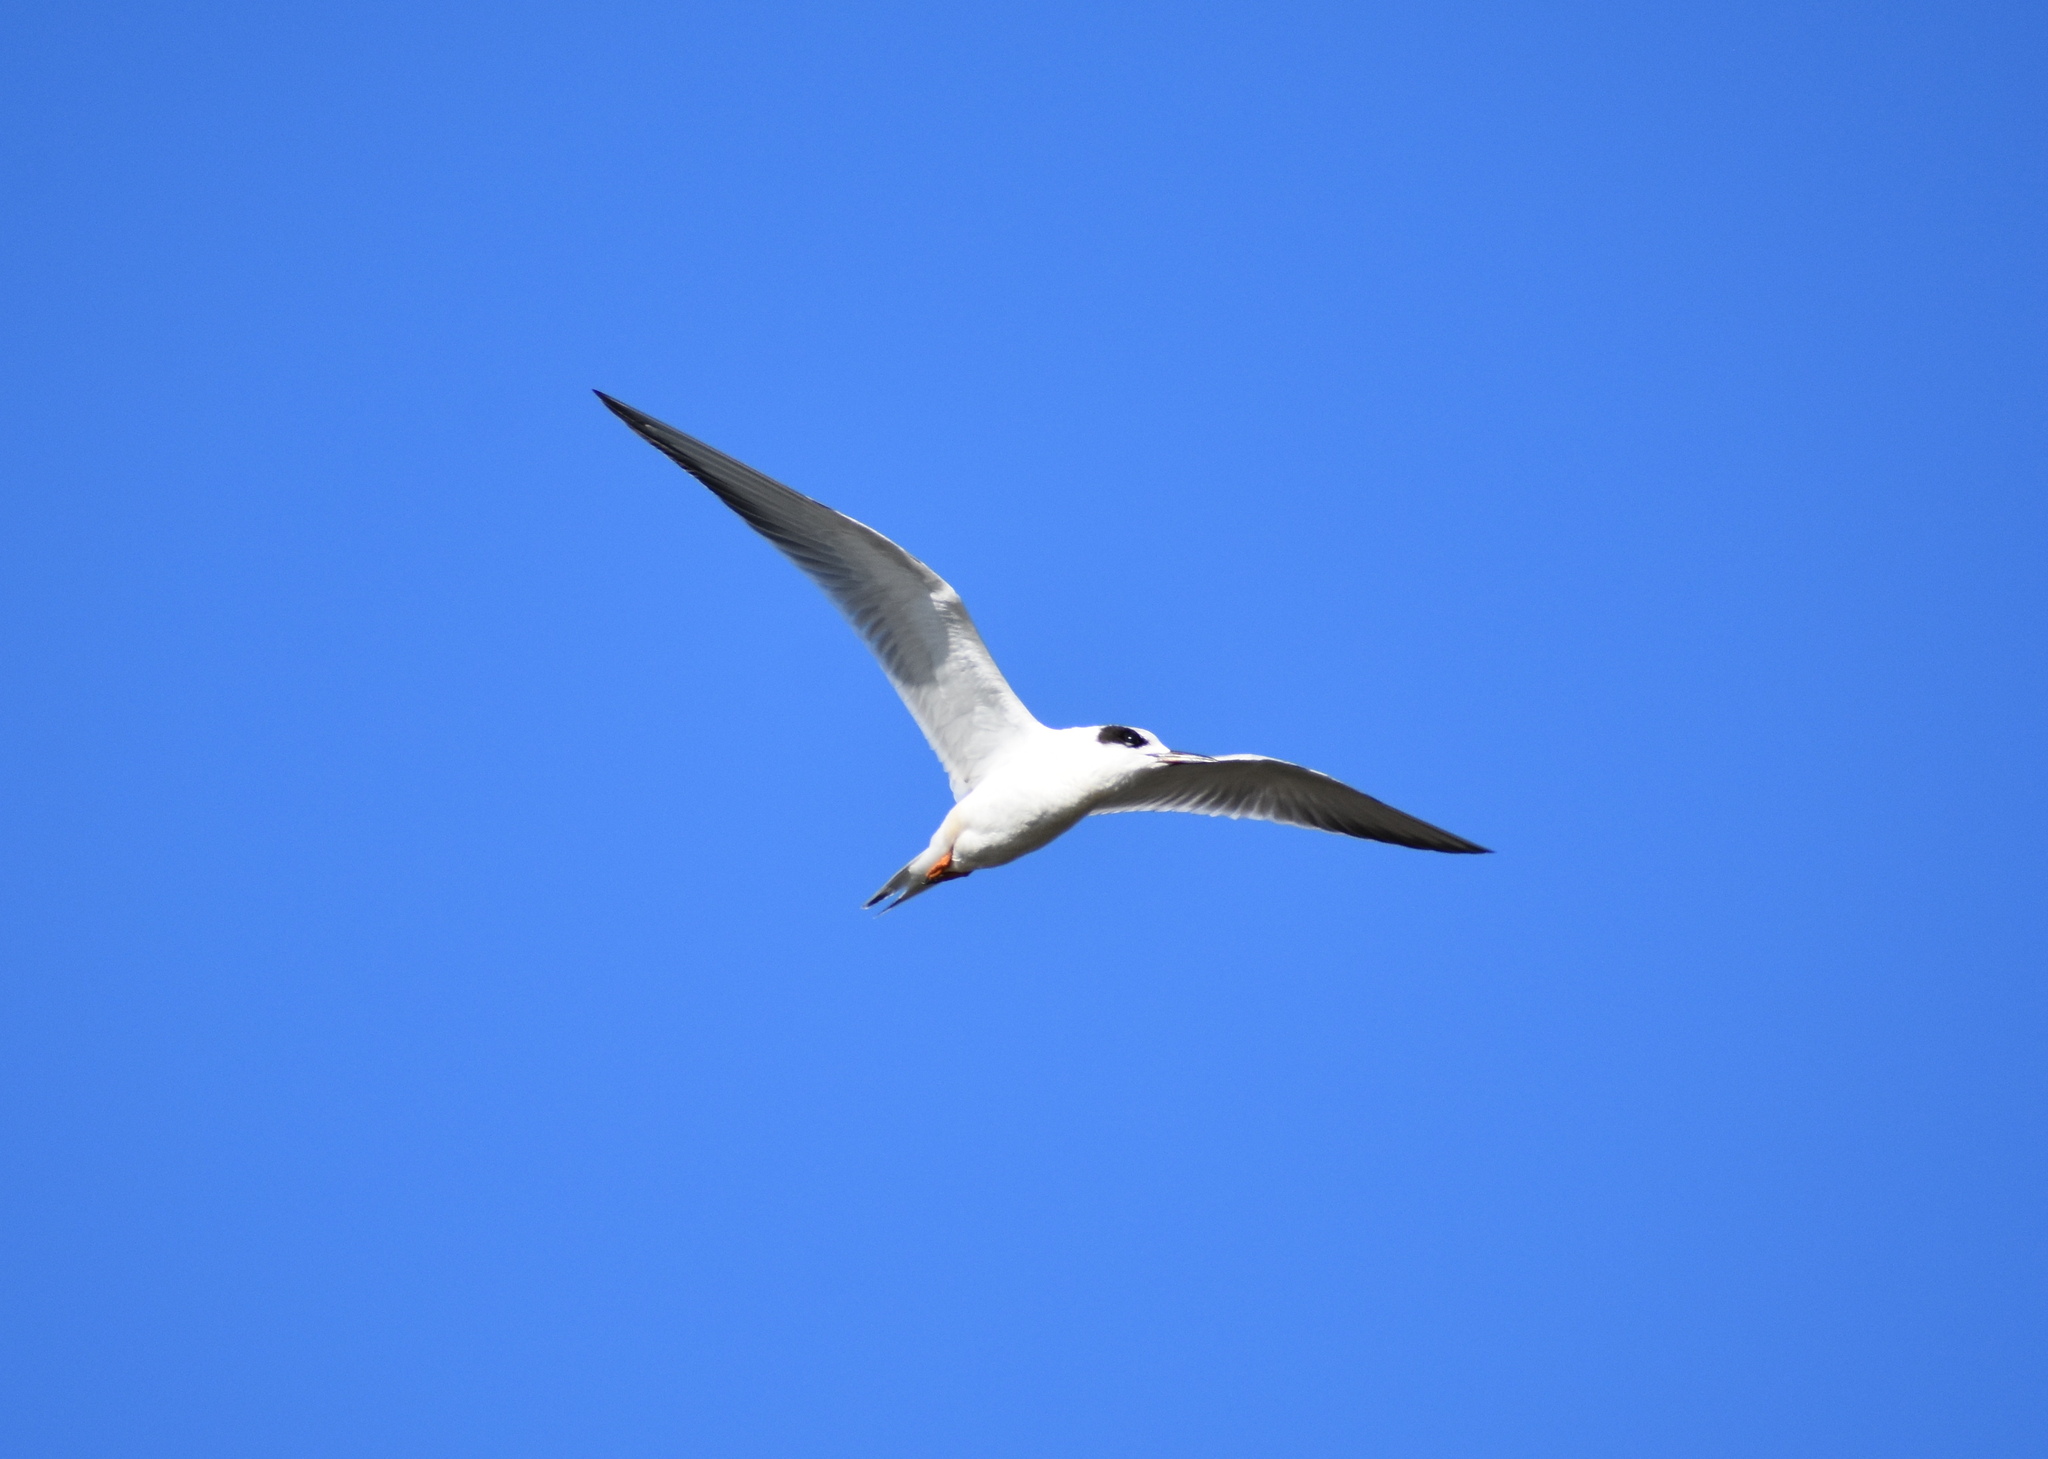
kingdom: Animalia
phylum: Chordata
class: Aves
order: Charadriiformes
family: Laridae
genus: Sterna
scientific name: Sterna forsteri
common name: Forster's tern
